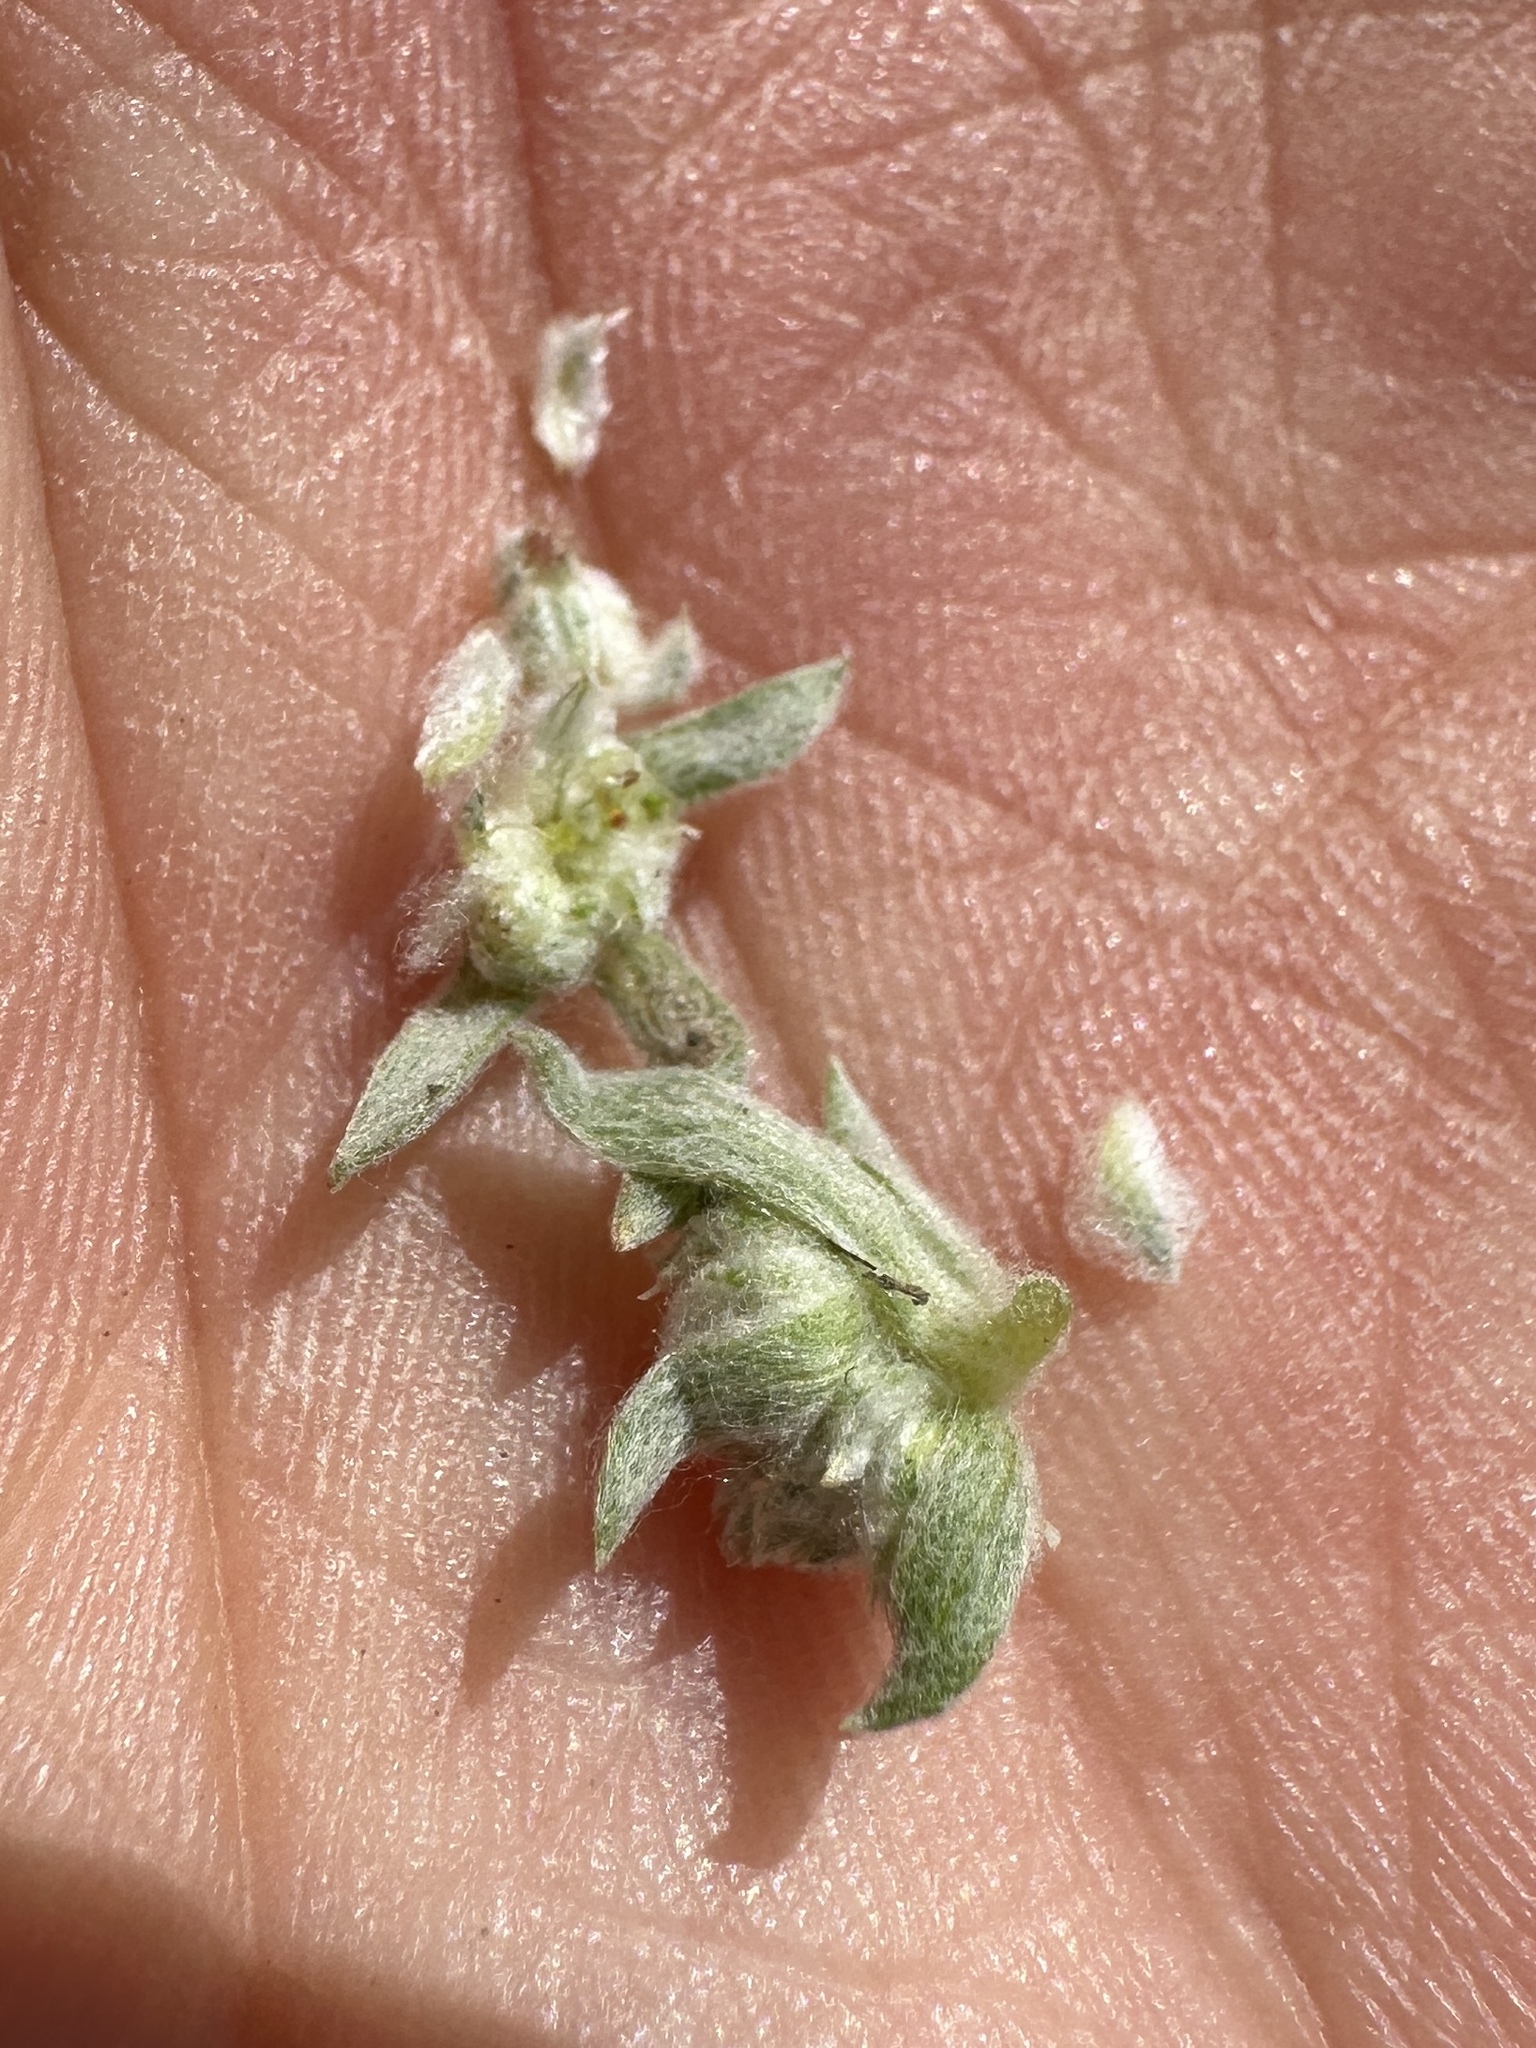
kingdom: Plantae
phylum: Tracheophyta
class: Magnoliopsida
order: Asterales
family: Asteraceae
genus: Stylocline
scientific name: Stylocline psilocarphoides
